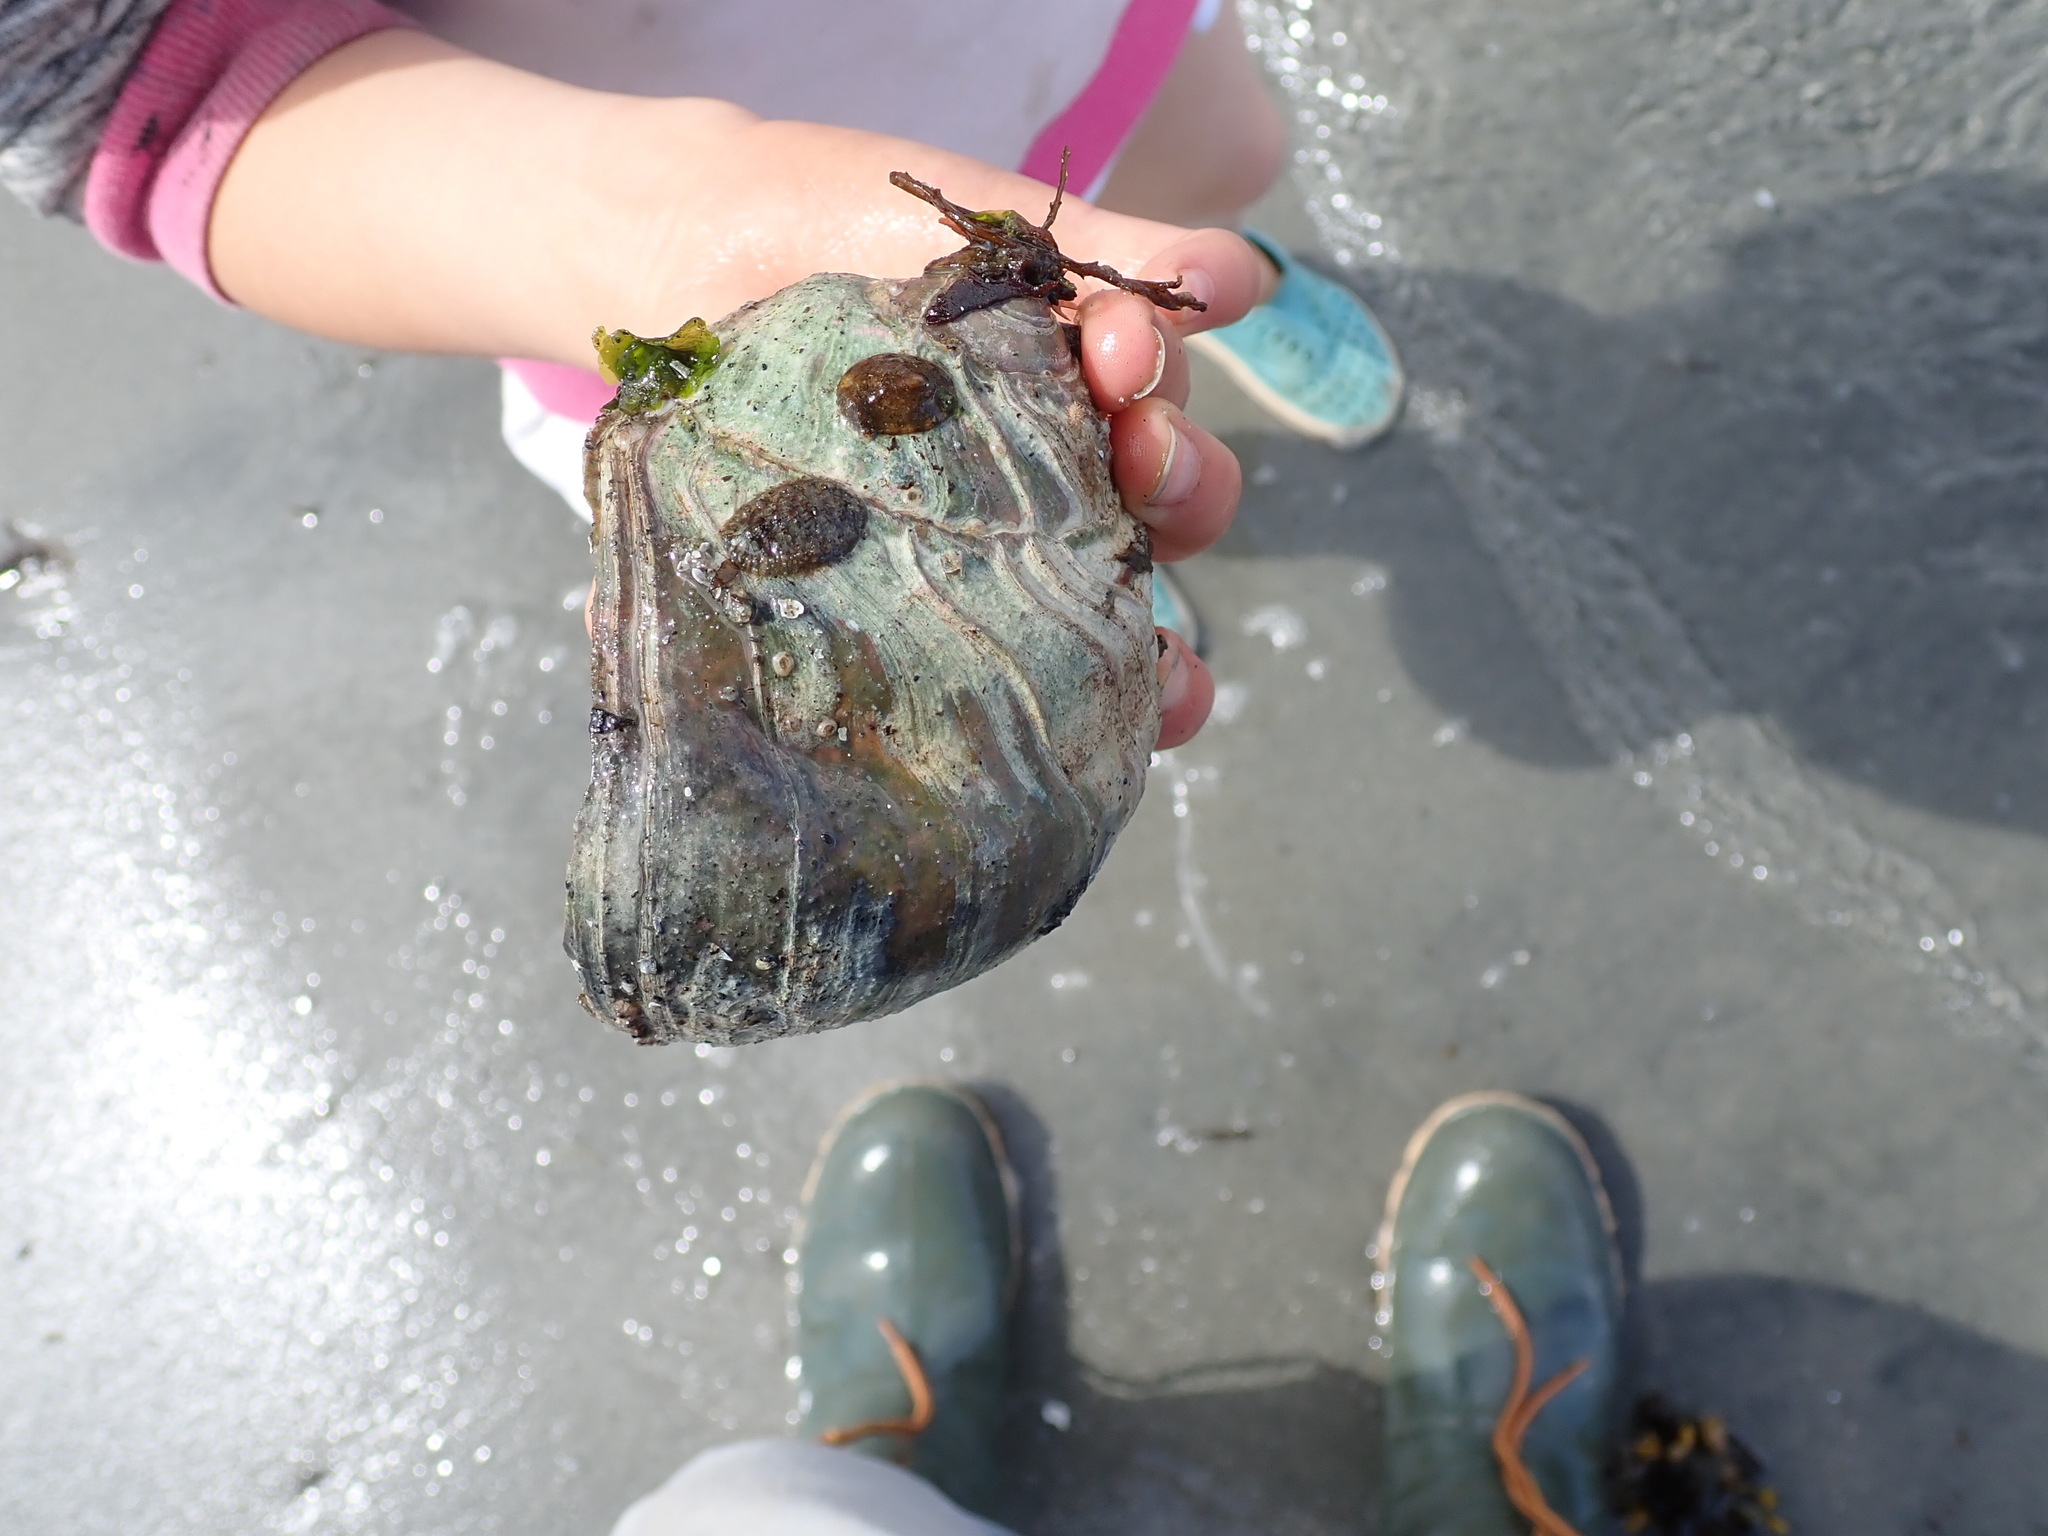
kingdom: Animalia
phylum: Mollusca
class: Gastropoda
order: Littorinimorpha
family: Naticidae
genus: Neverita
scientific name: Neverita lewisii
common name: Lewis' moonsnail
